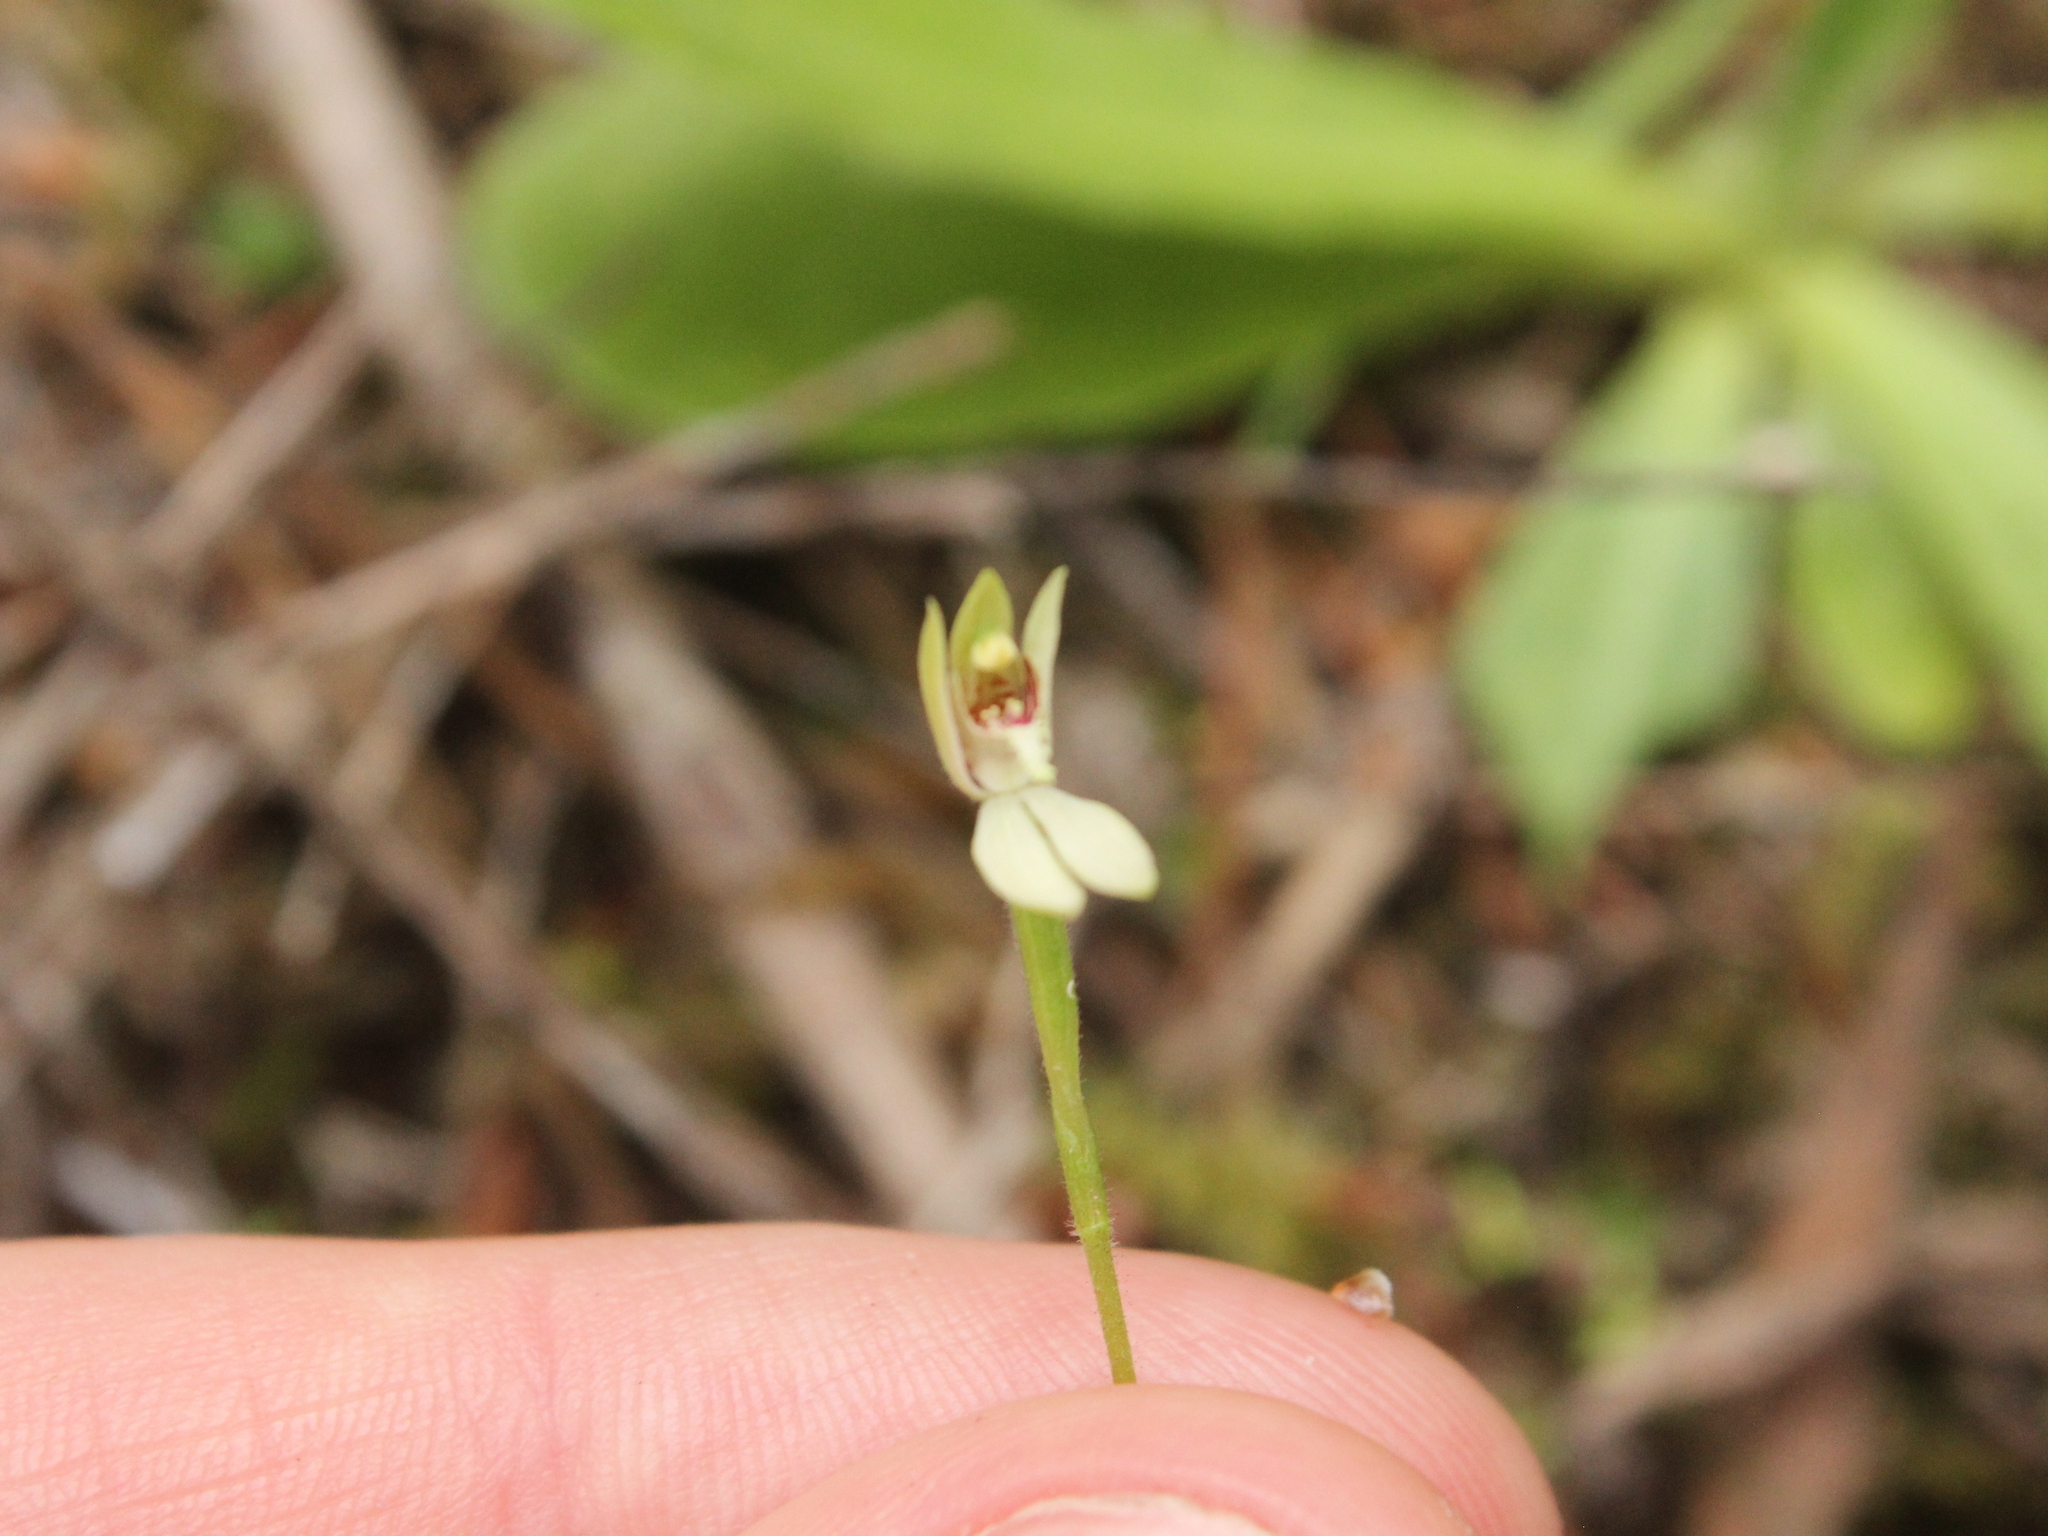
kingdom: Plantae
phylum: Tracheophyta
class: Liliopsida
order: Asparagales
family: Orchidaceae
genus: Caladenia
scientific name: Caladenia chlorostyla
